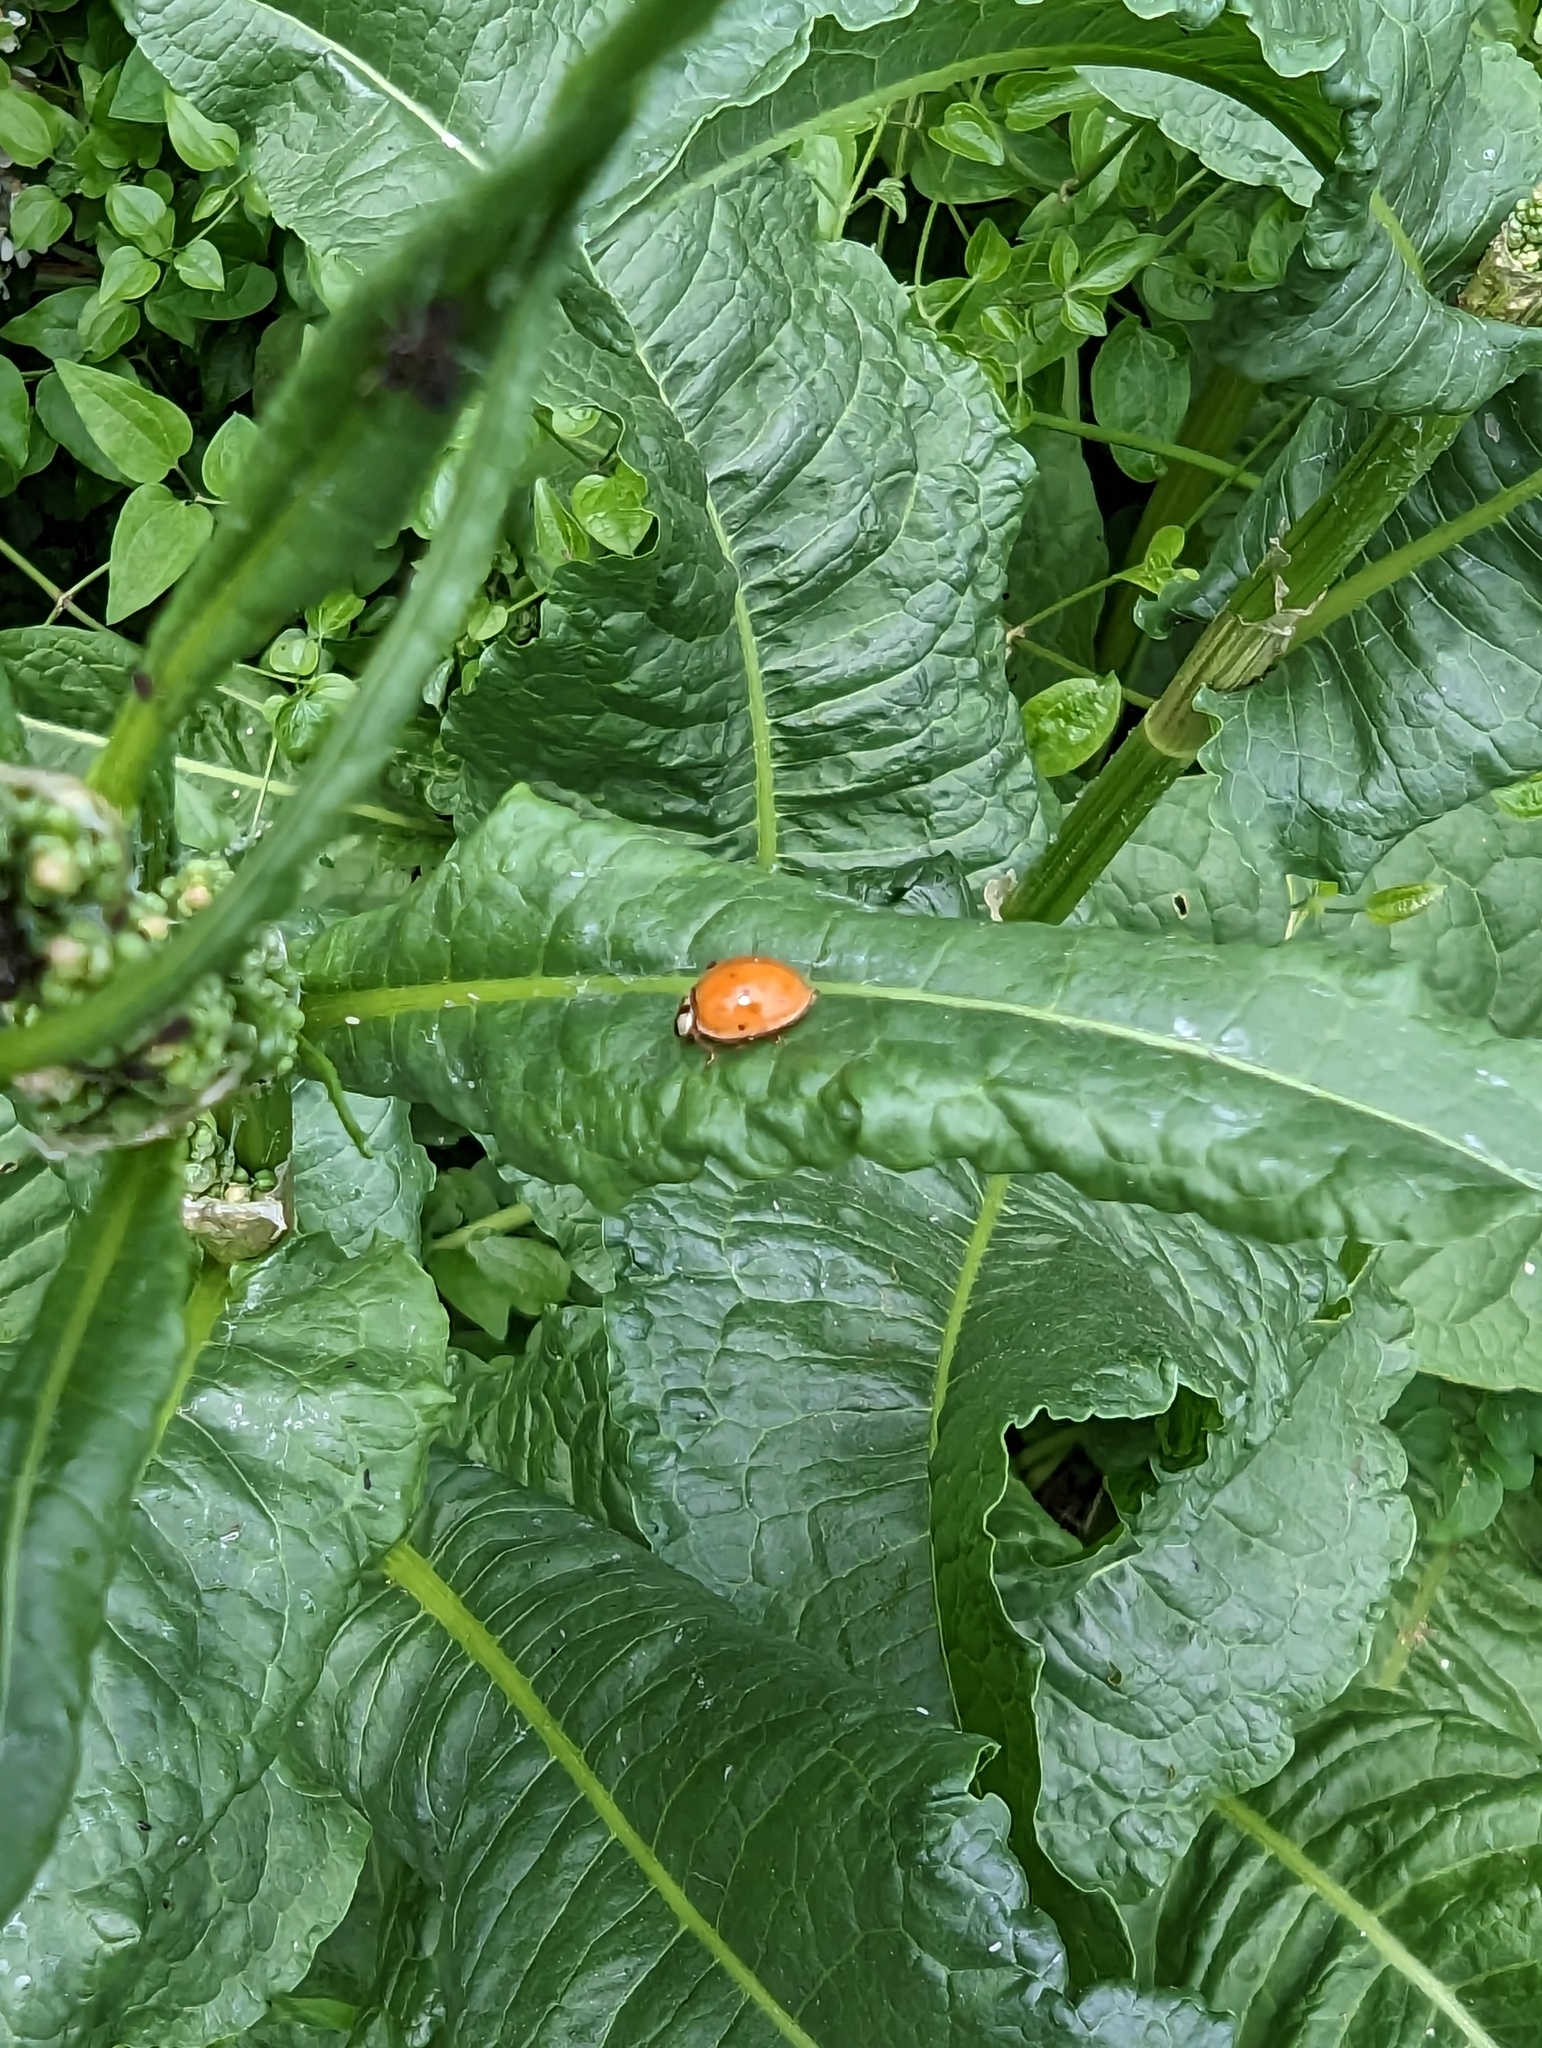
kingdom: Animalia
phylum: Arthropoda
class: Insecta
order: Coleoptera
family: Coccinellidae
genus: Harmonia
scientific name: Harmonia axyridis
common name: Harlequin ladybird
